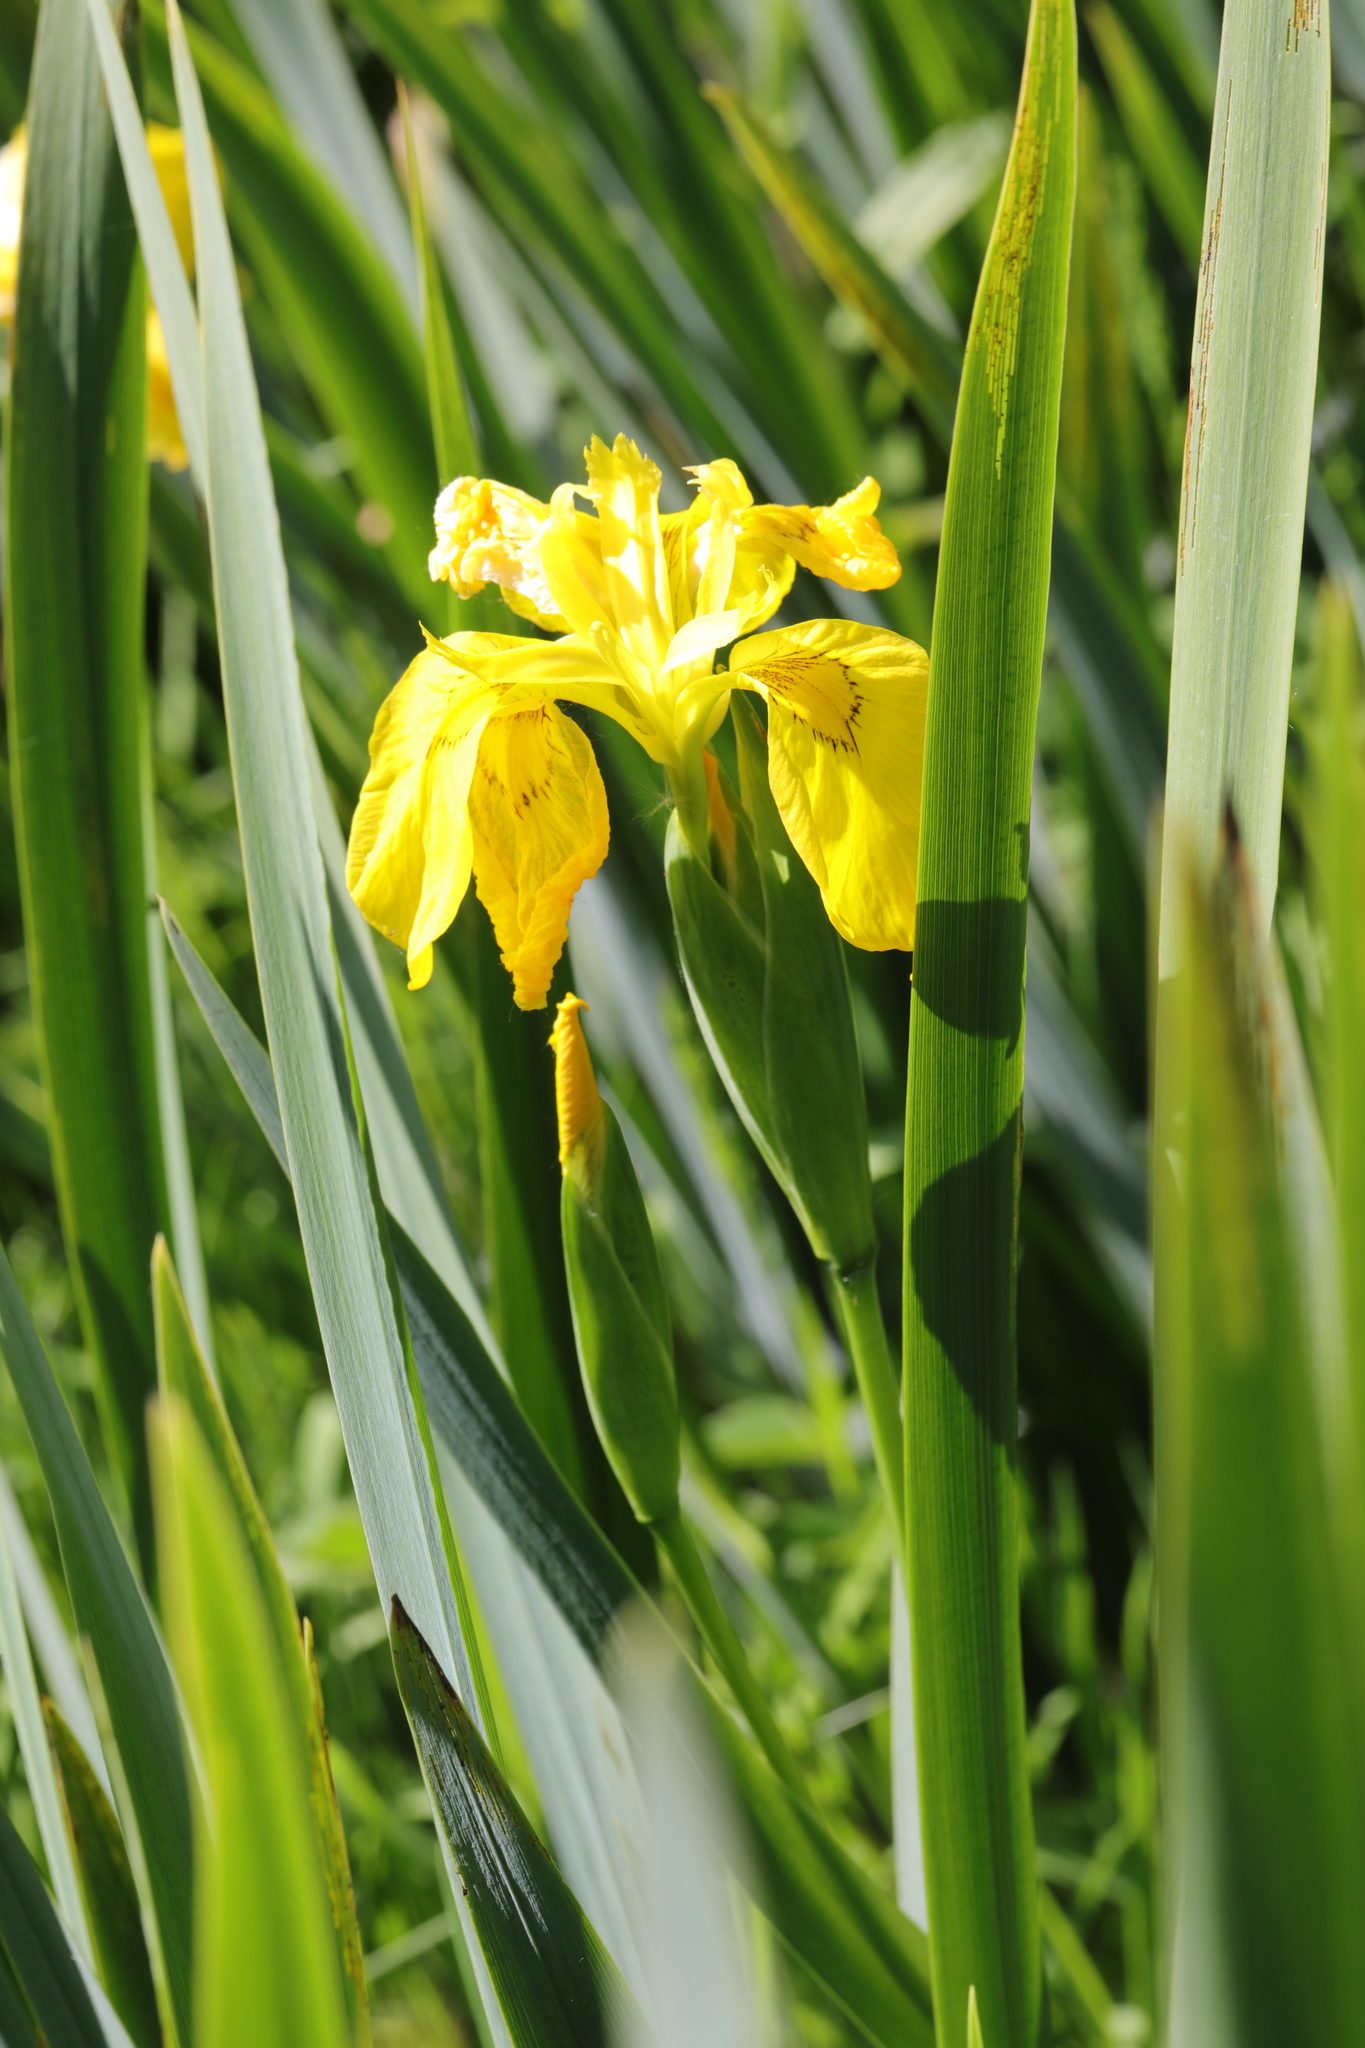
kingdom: Plantae
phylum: Tracheophyta
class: Liliopsida
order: Asparagales
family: Iridaceae
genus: Iris
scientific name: Iris pseudacorus
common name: Yellow flag
